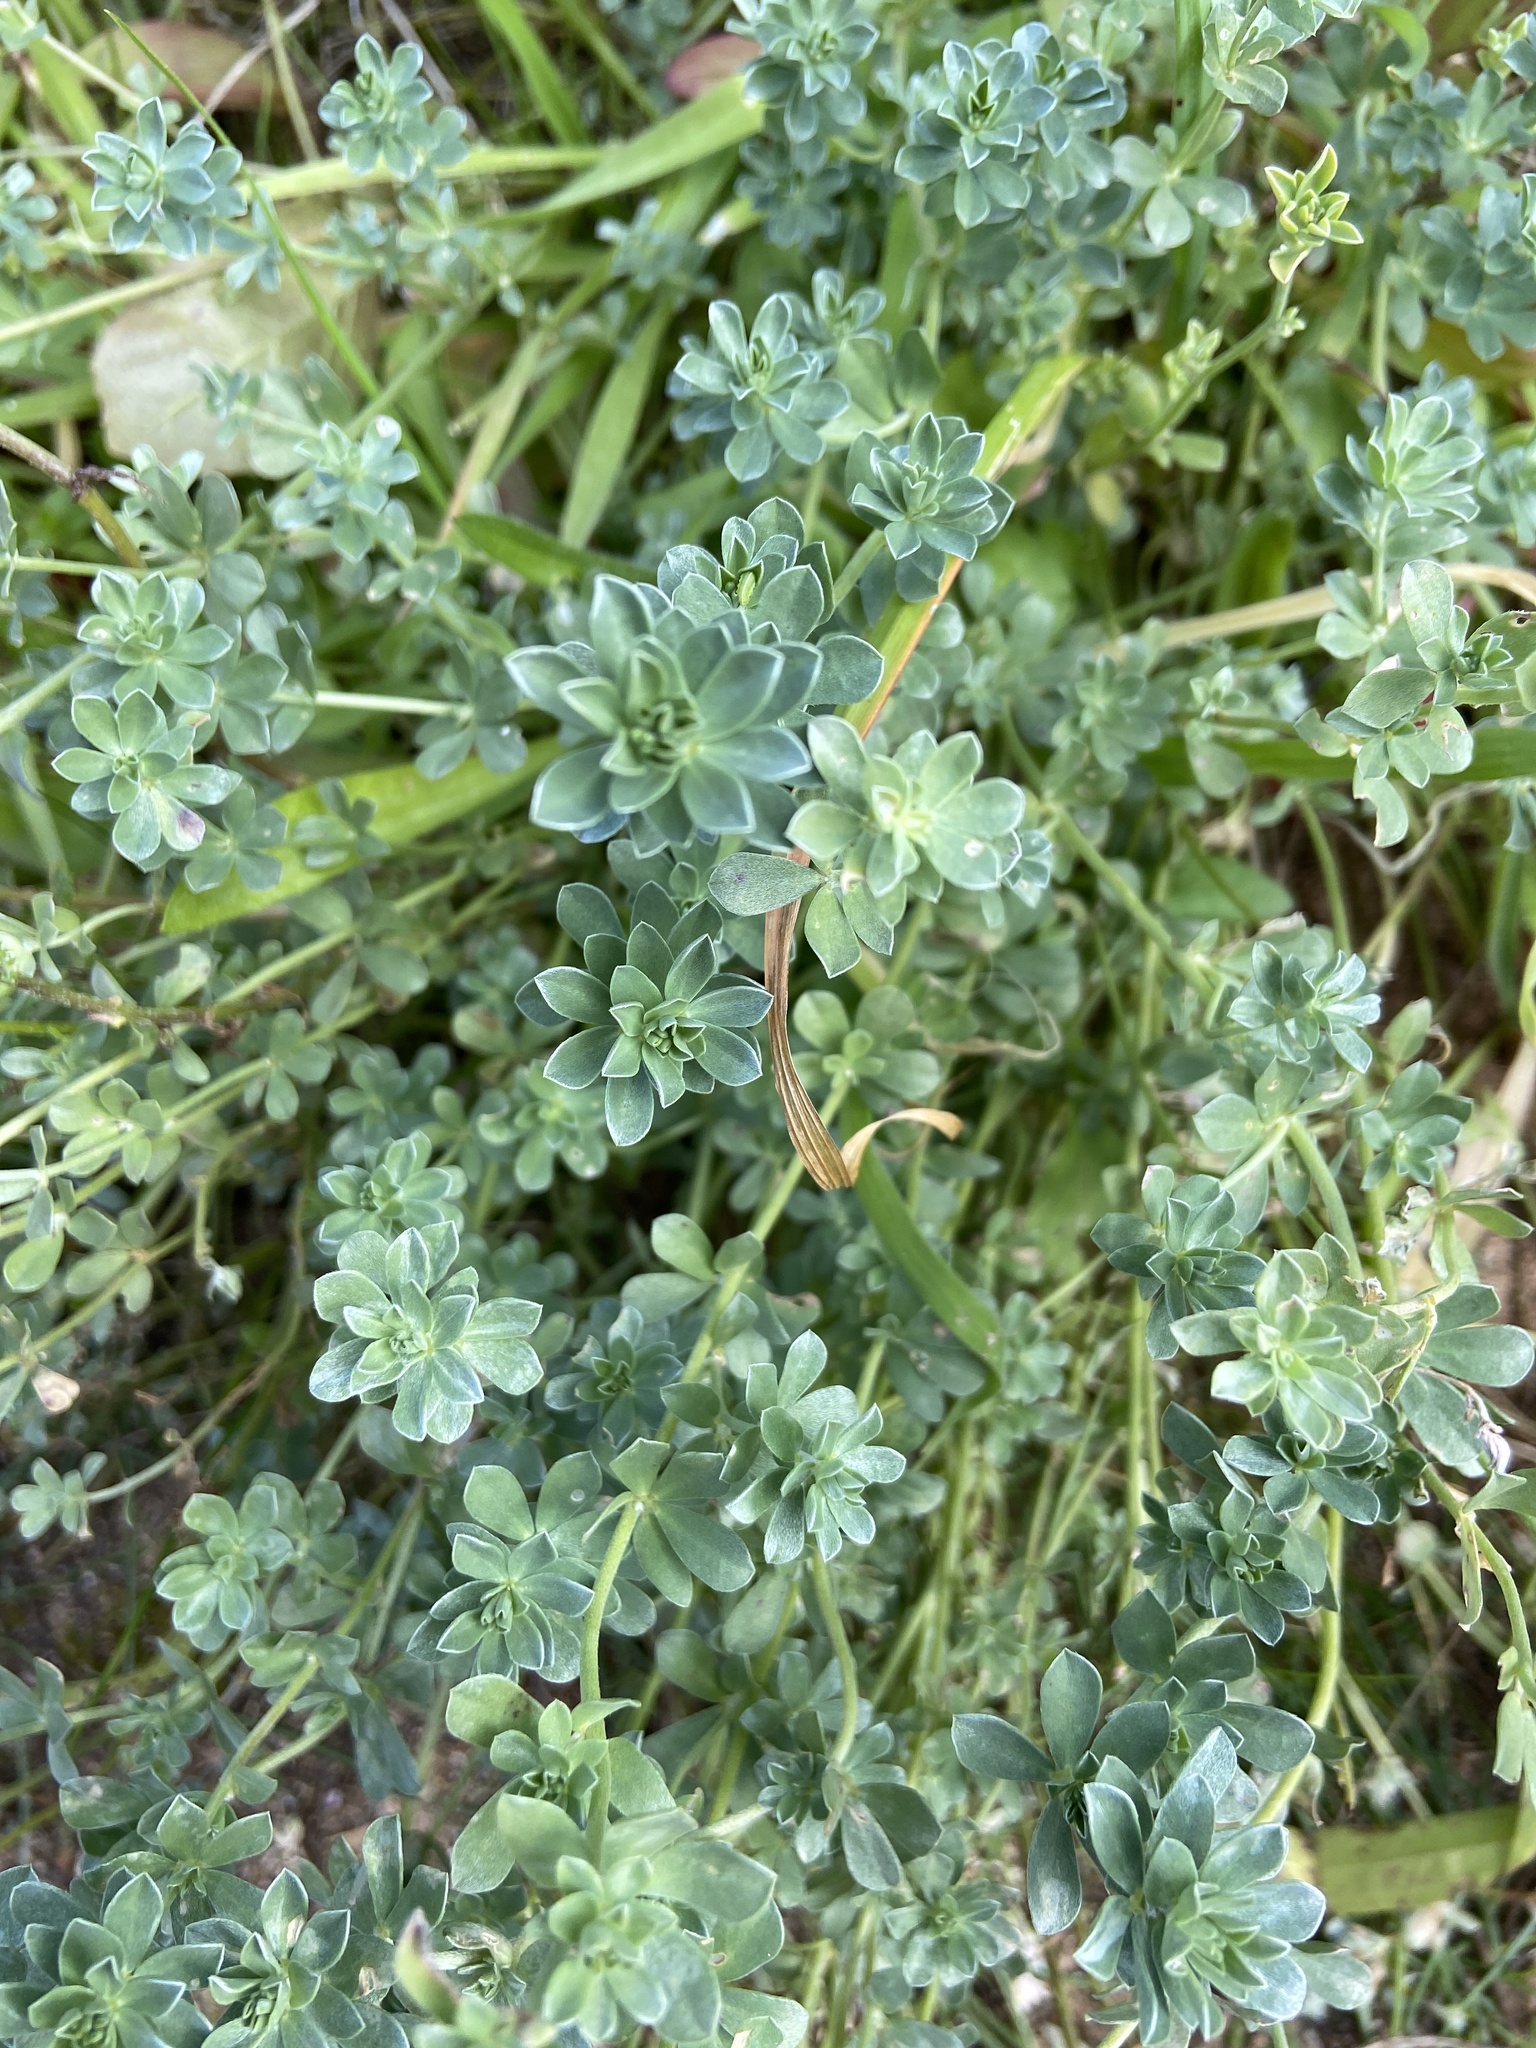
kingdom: Plantae
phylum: Tracheophyta
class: Magnoliopsida
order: Fabales
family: Fabaceae
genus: Lotus
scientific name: Lotus cytisoides
